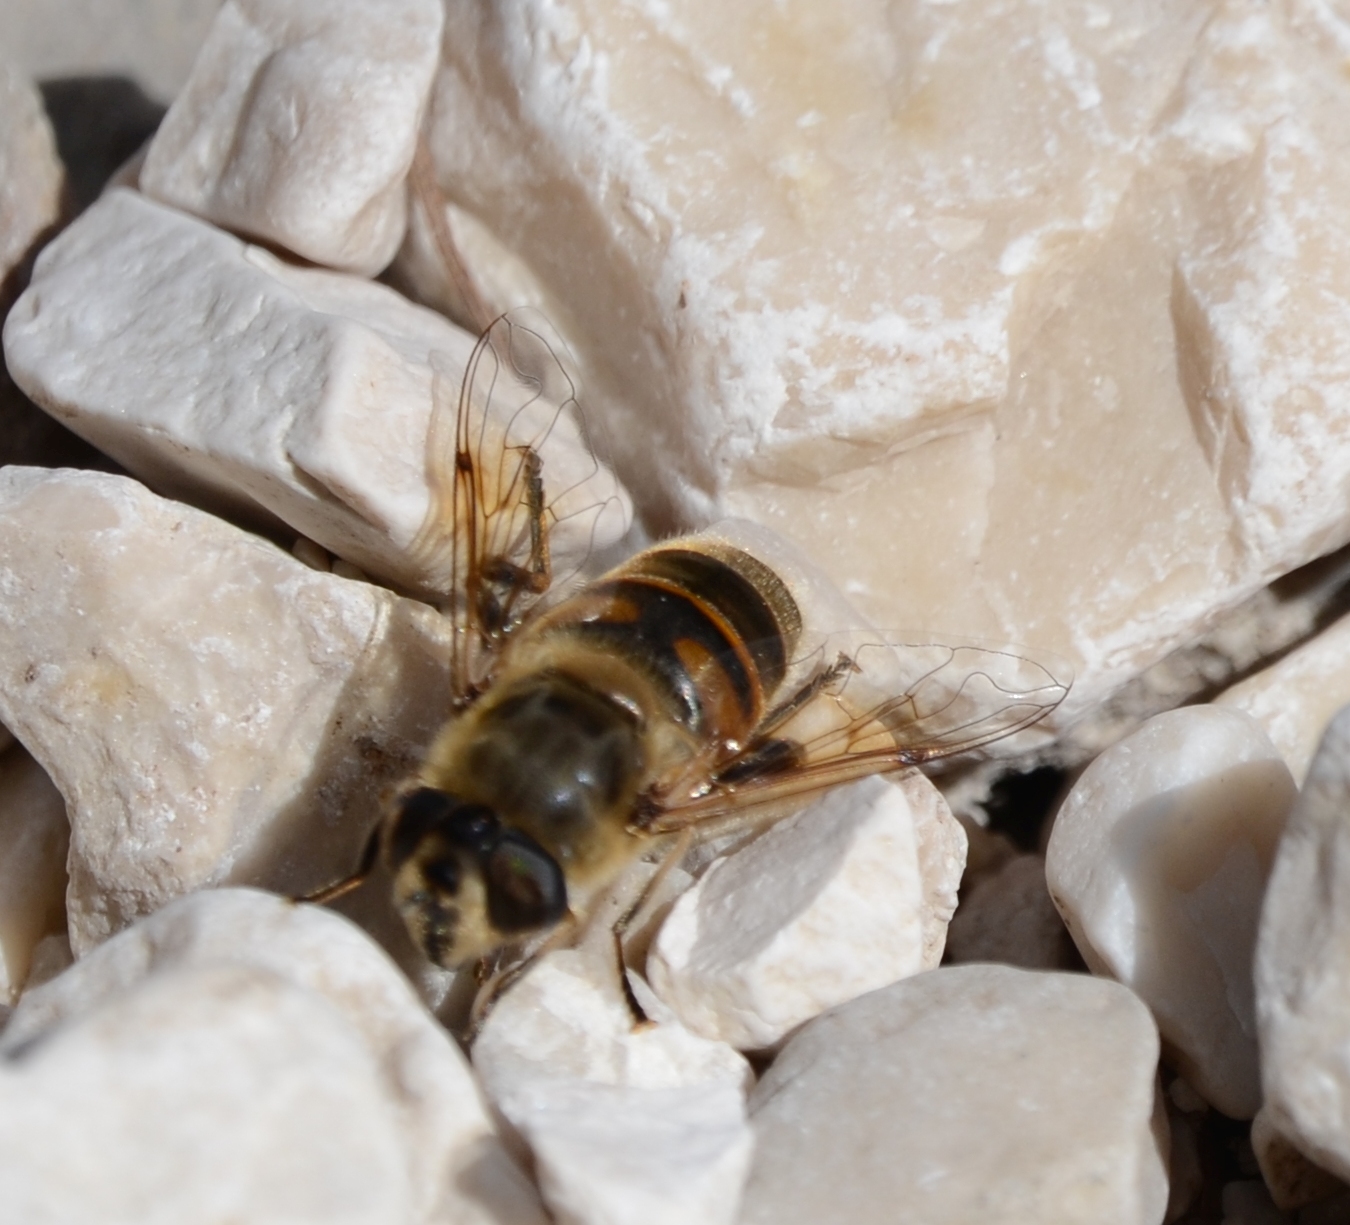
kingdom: Animalia
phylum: Arthropoda
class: Insecta
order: Diptera
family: Syrphidae
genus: Eristalis
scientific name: Eristalis tenax
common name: Drone fly
